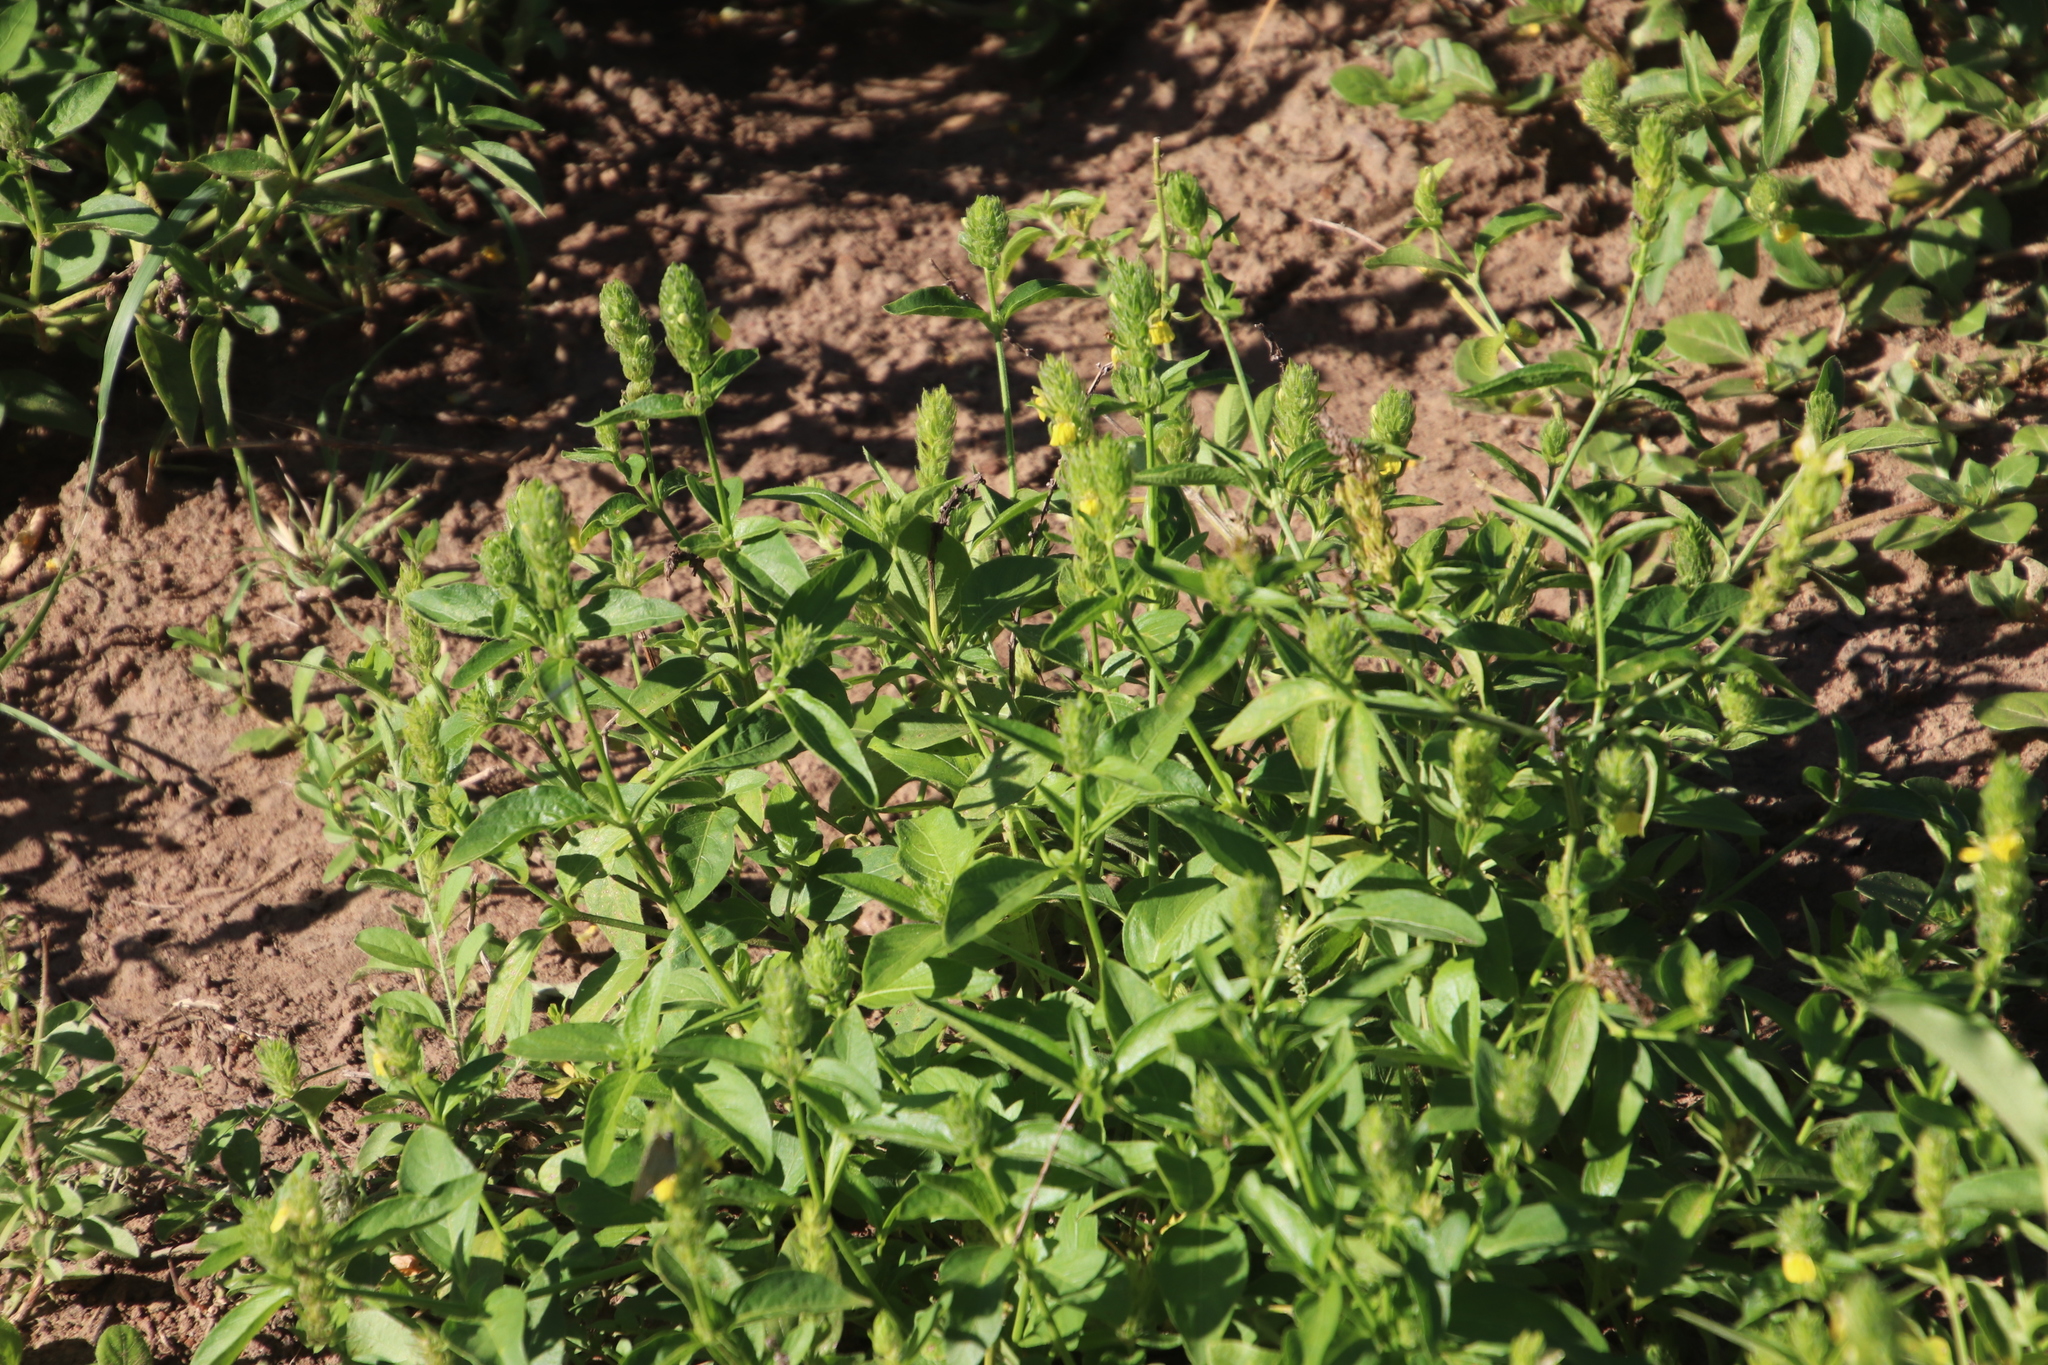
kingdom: Plantae
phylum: Tracheophyta
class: Magnoliopsida
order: Lamiales
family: Acanthaceae
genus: Justicia
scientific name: Justicia flava
